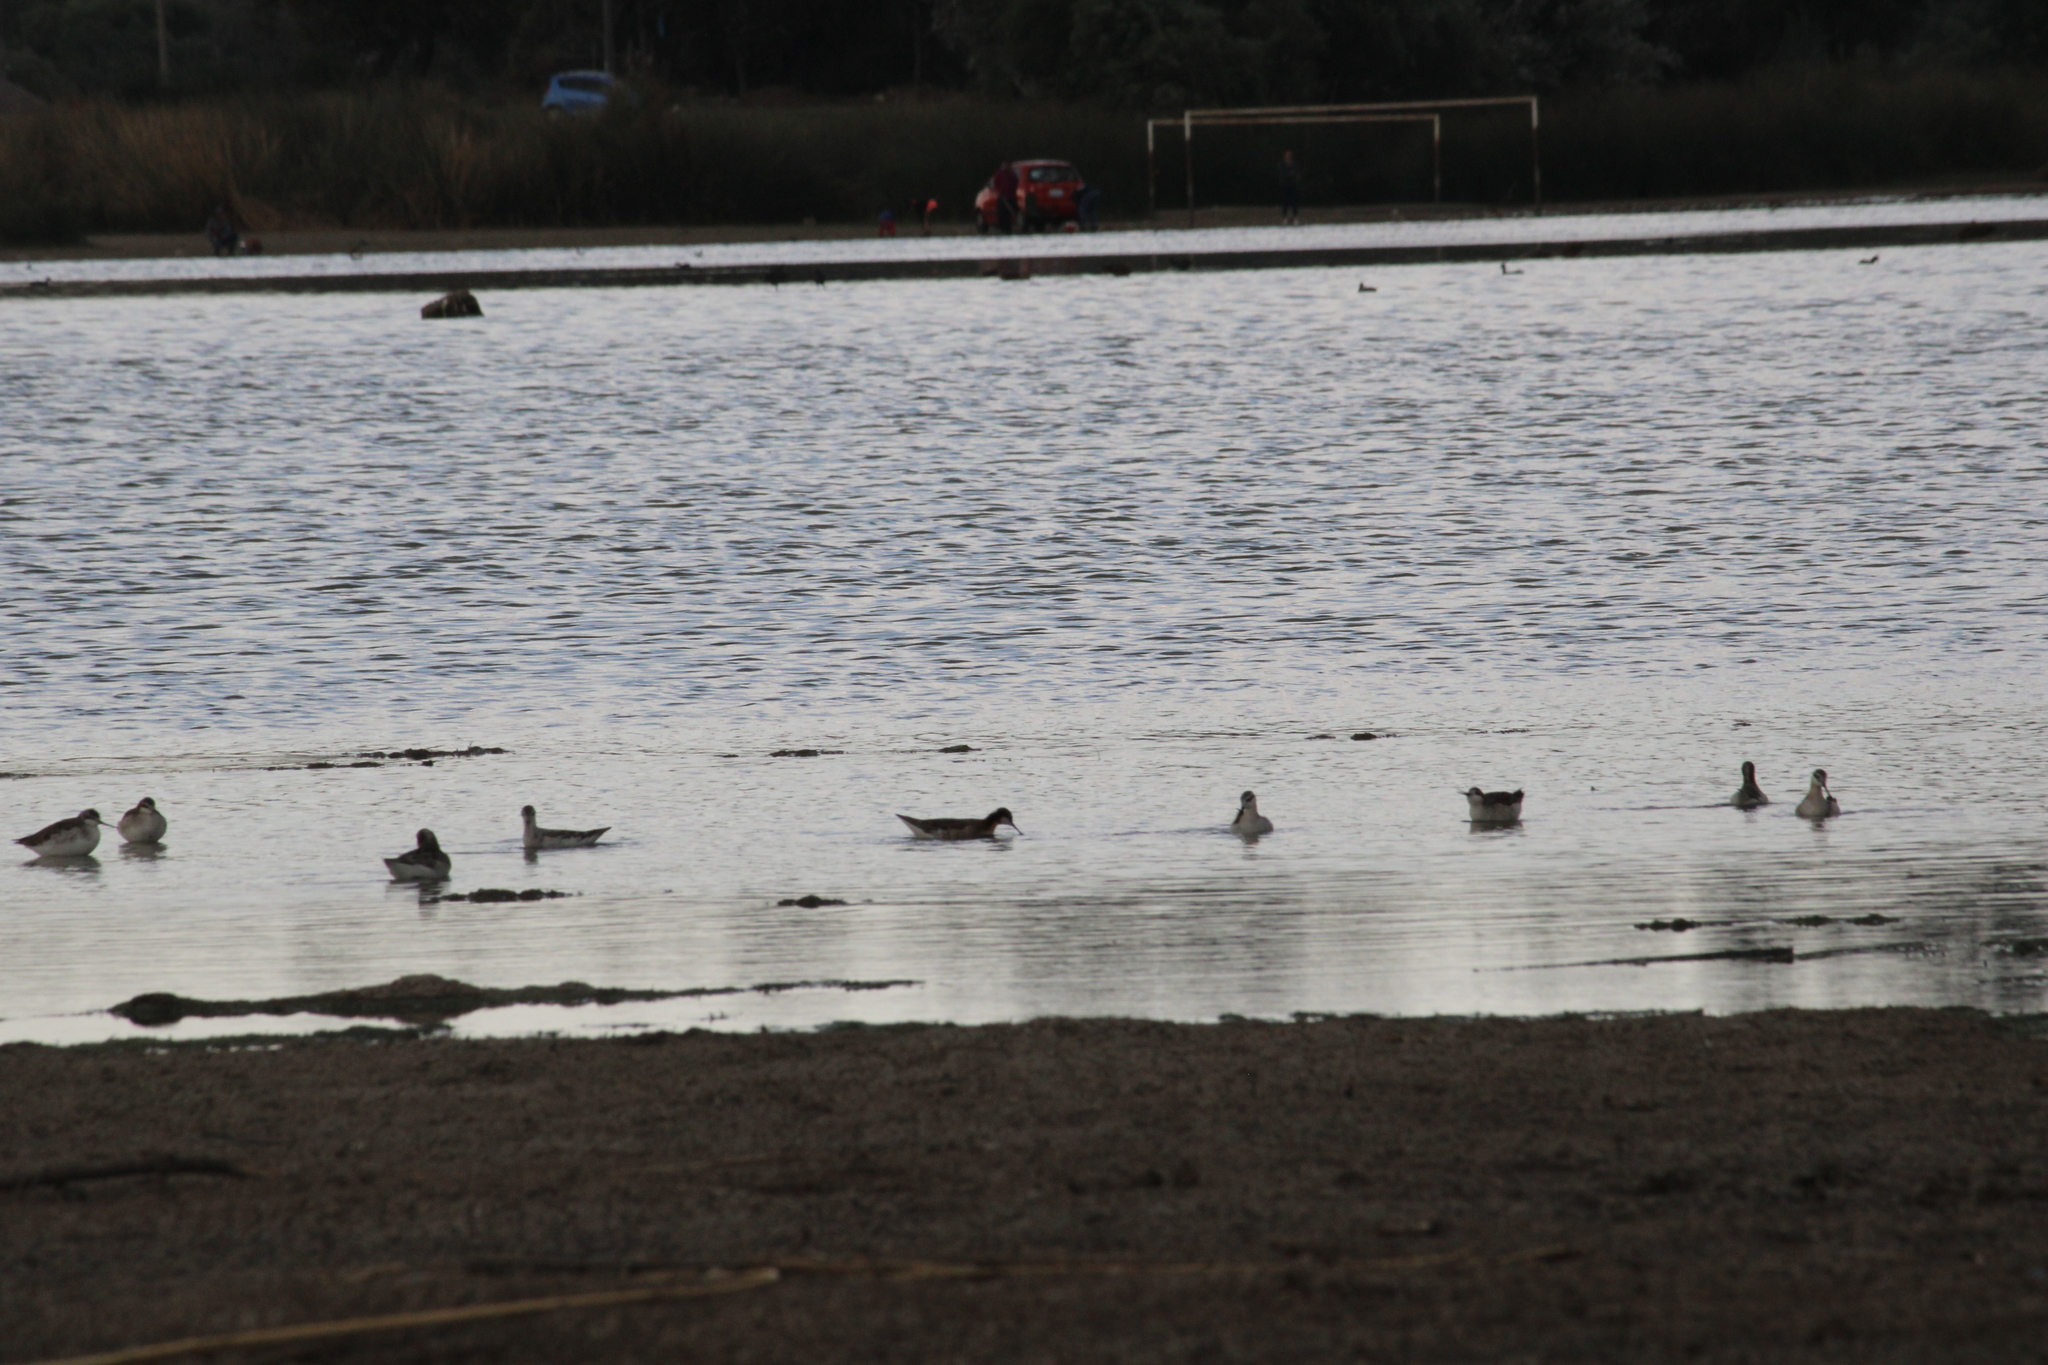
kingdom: Animalia
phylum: Chordata
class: Aves
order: Charadriiformes
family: Scolopacidae
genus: Phalaropus
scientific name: Phalaropus tricolor
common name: Wilson's phalarope
